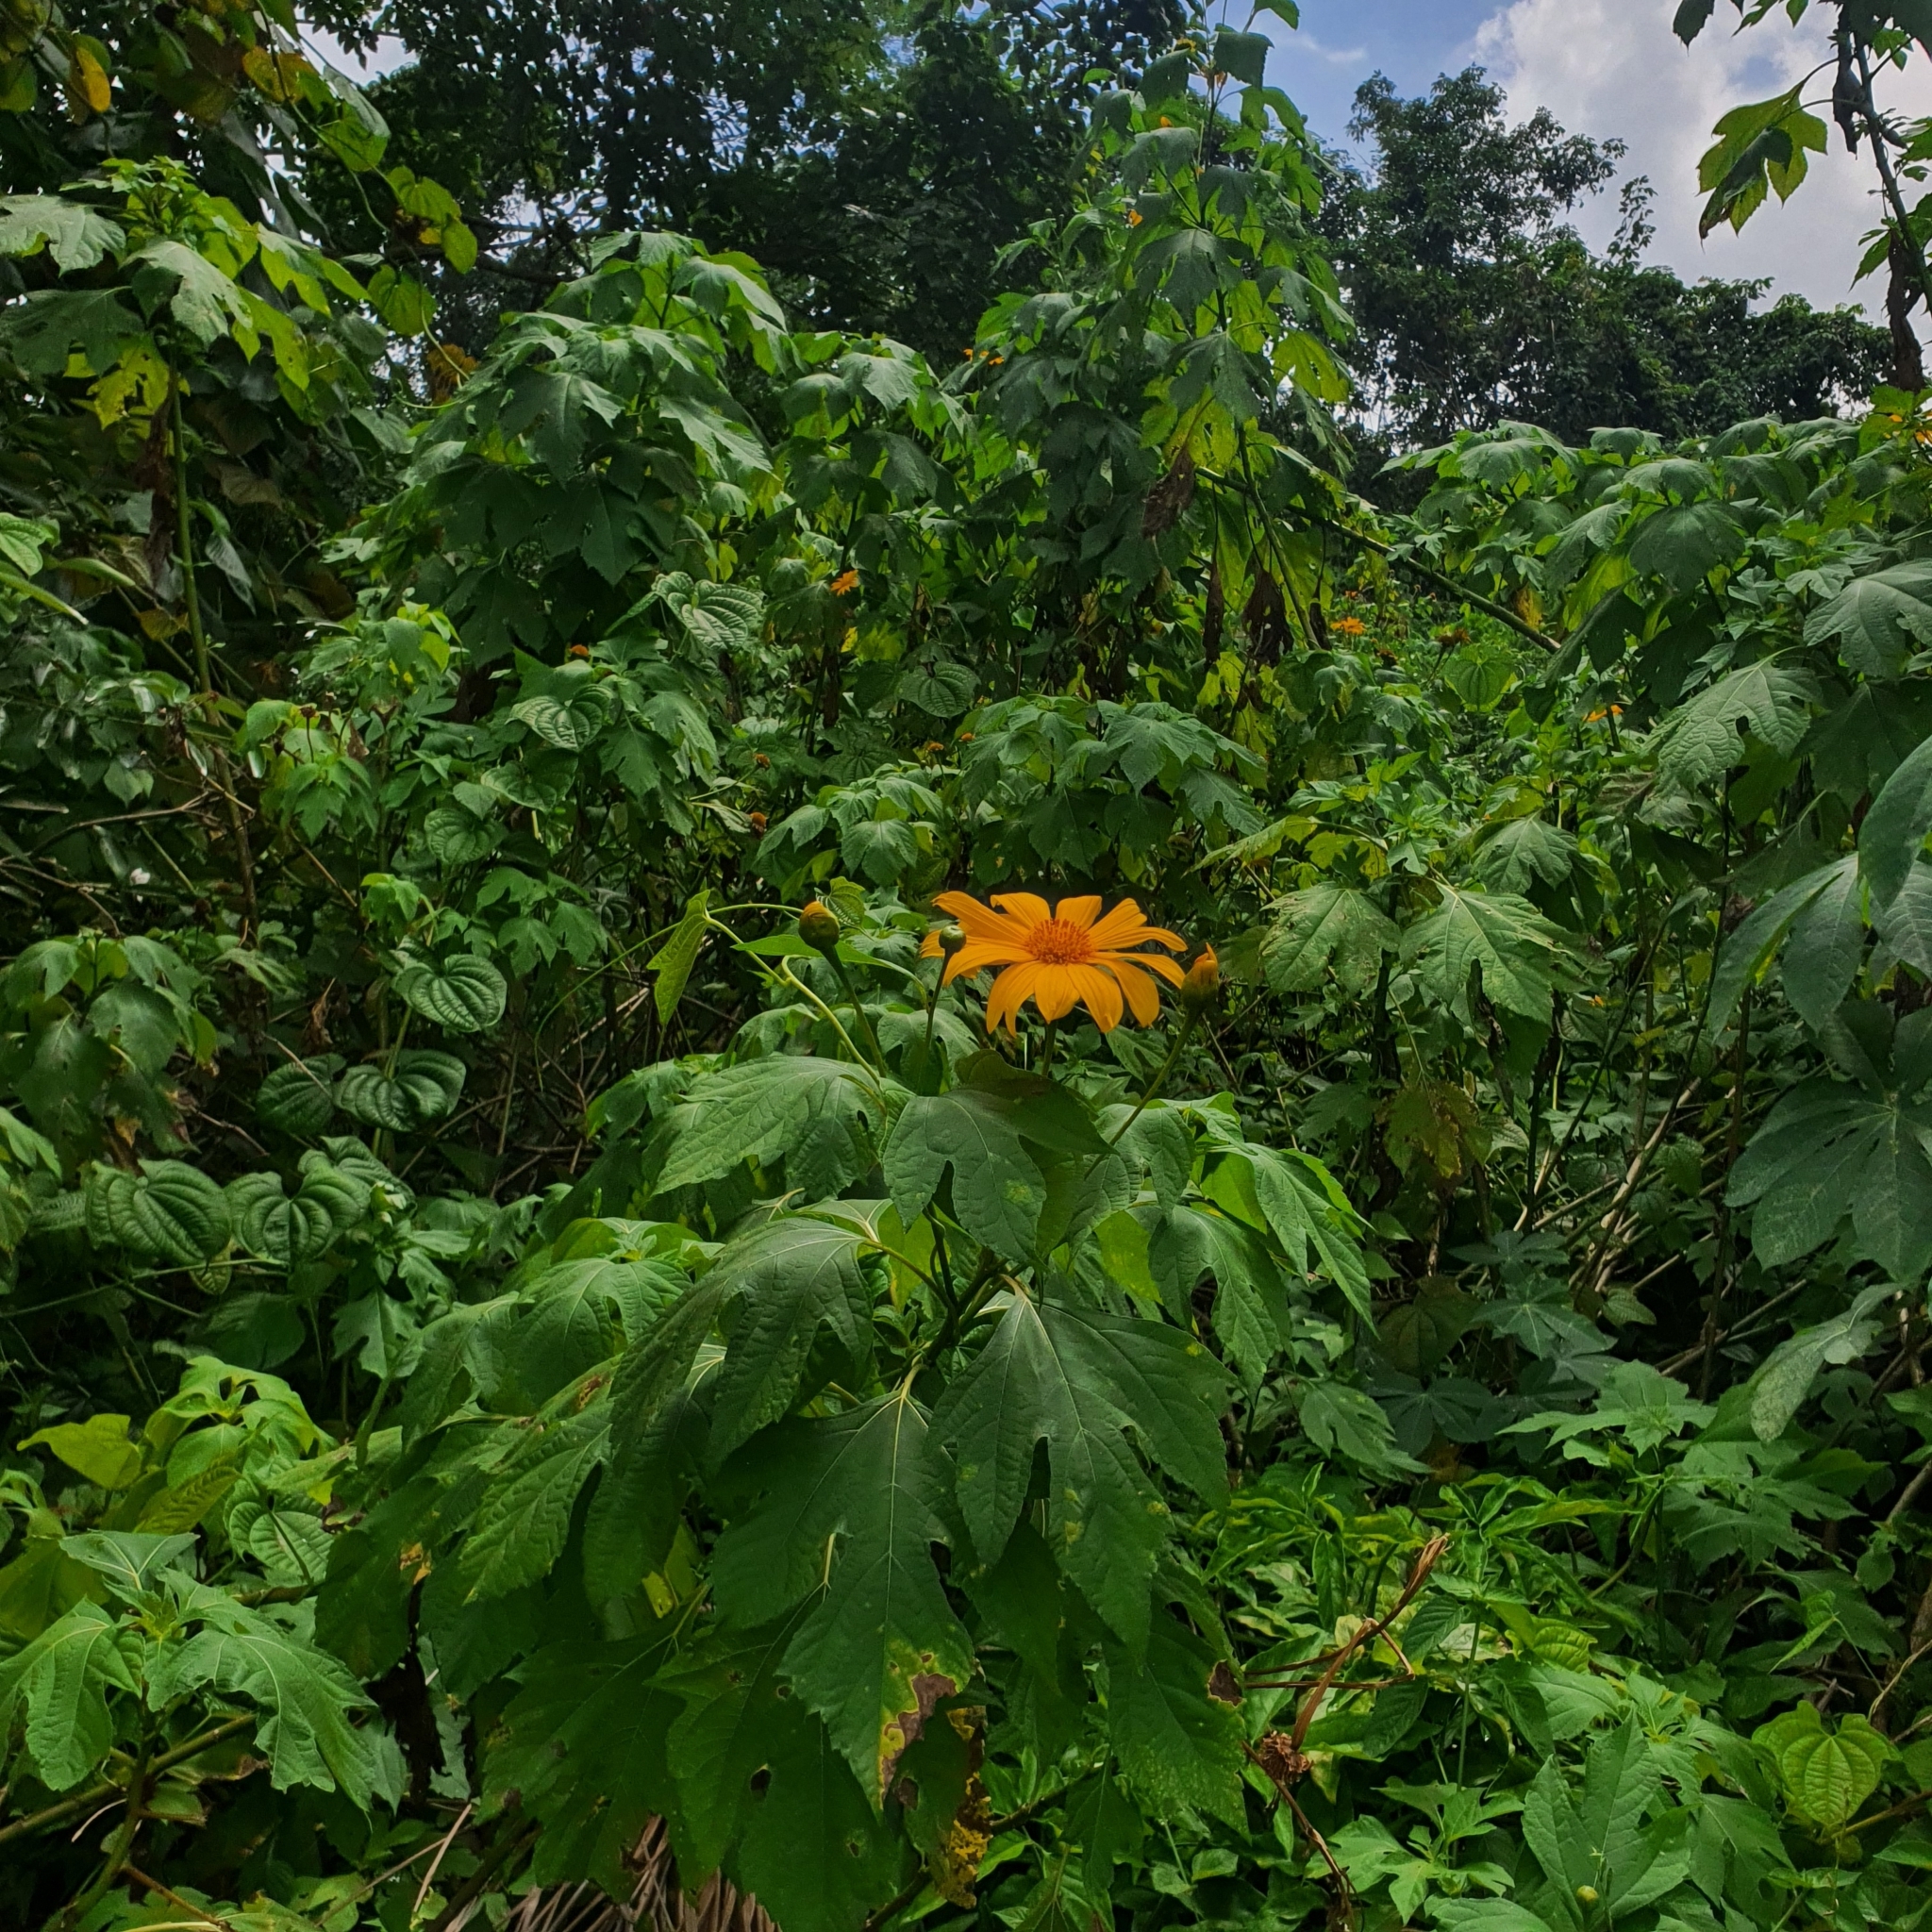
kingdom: Plantae
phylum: Tracheophyta
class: Magnoliopsida
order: Asterales
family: Asteraceae
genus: Tithonia
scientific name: Tithonia diversifolia
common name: Tree marigold
